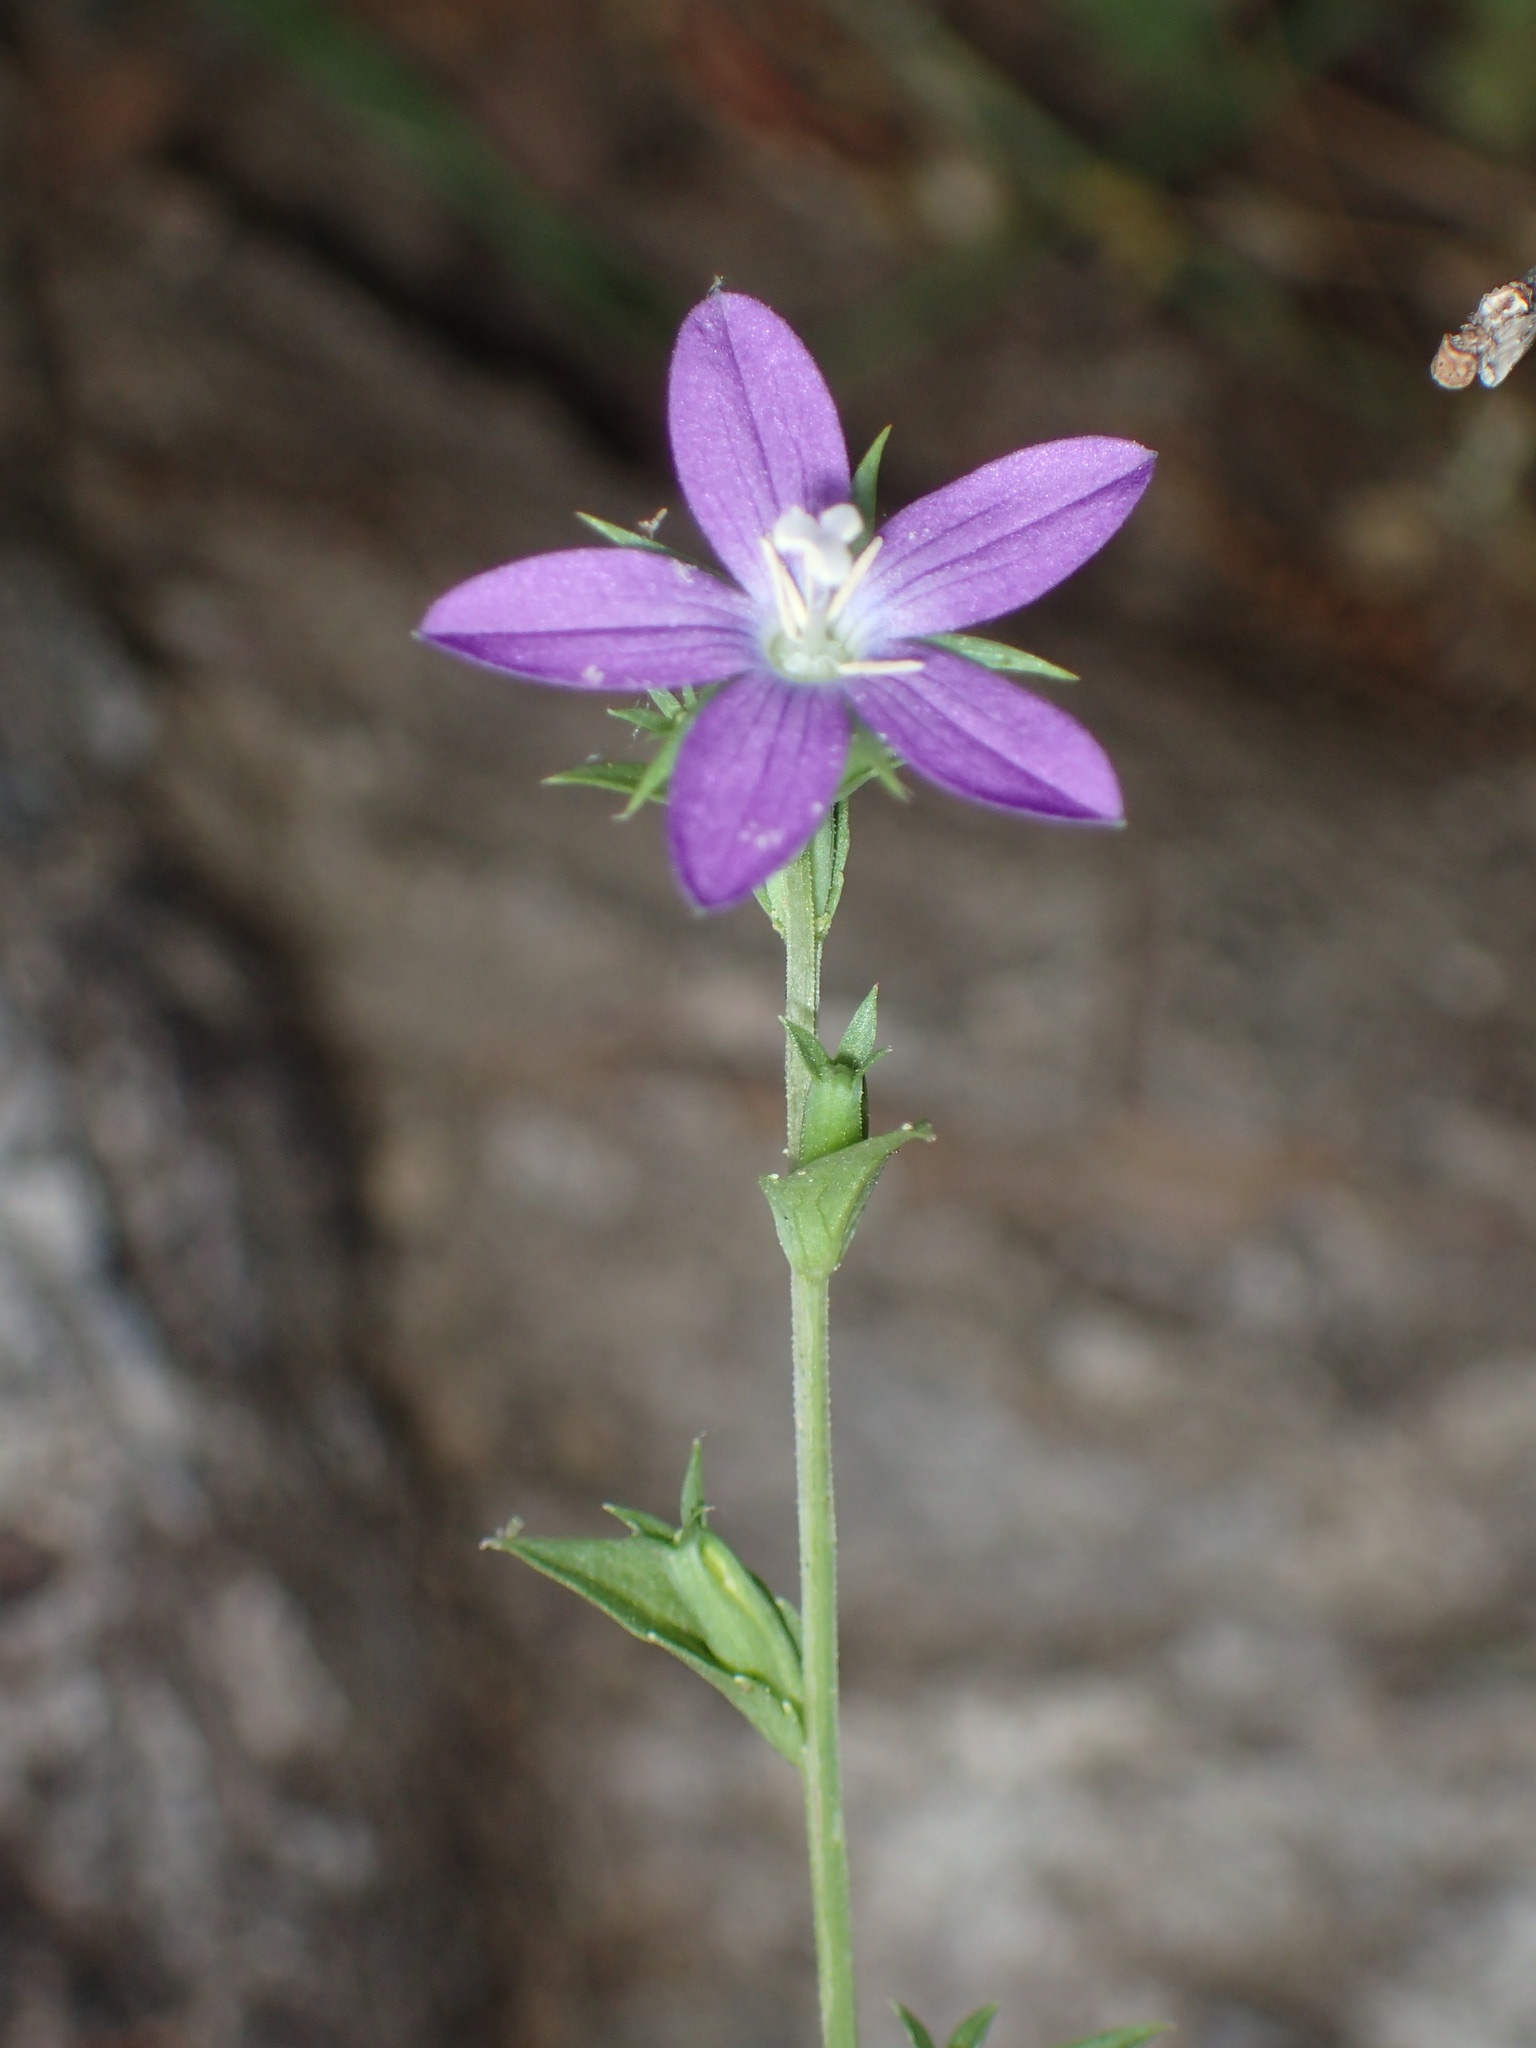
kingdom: Plantae
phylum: Tracheophyta
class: Magnoliopsida
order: Asterales
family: Campanulaceae
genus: Triodanis
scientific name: Triodanis biflora
